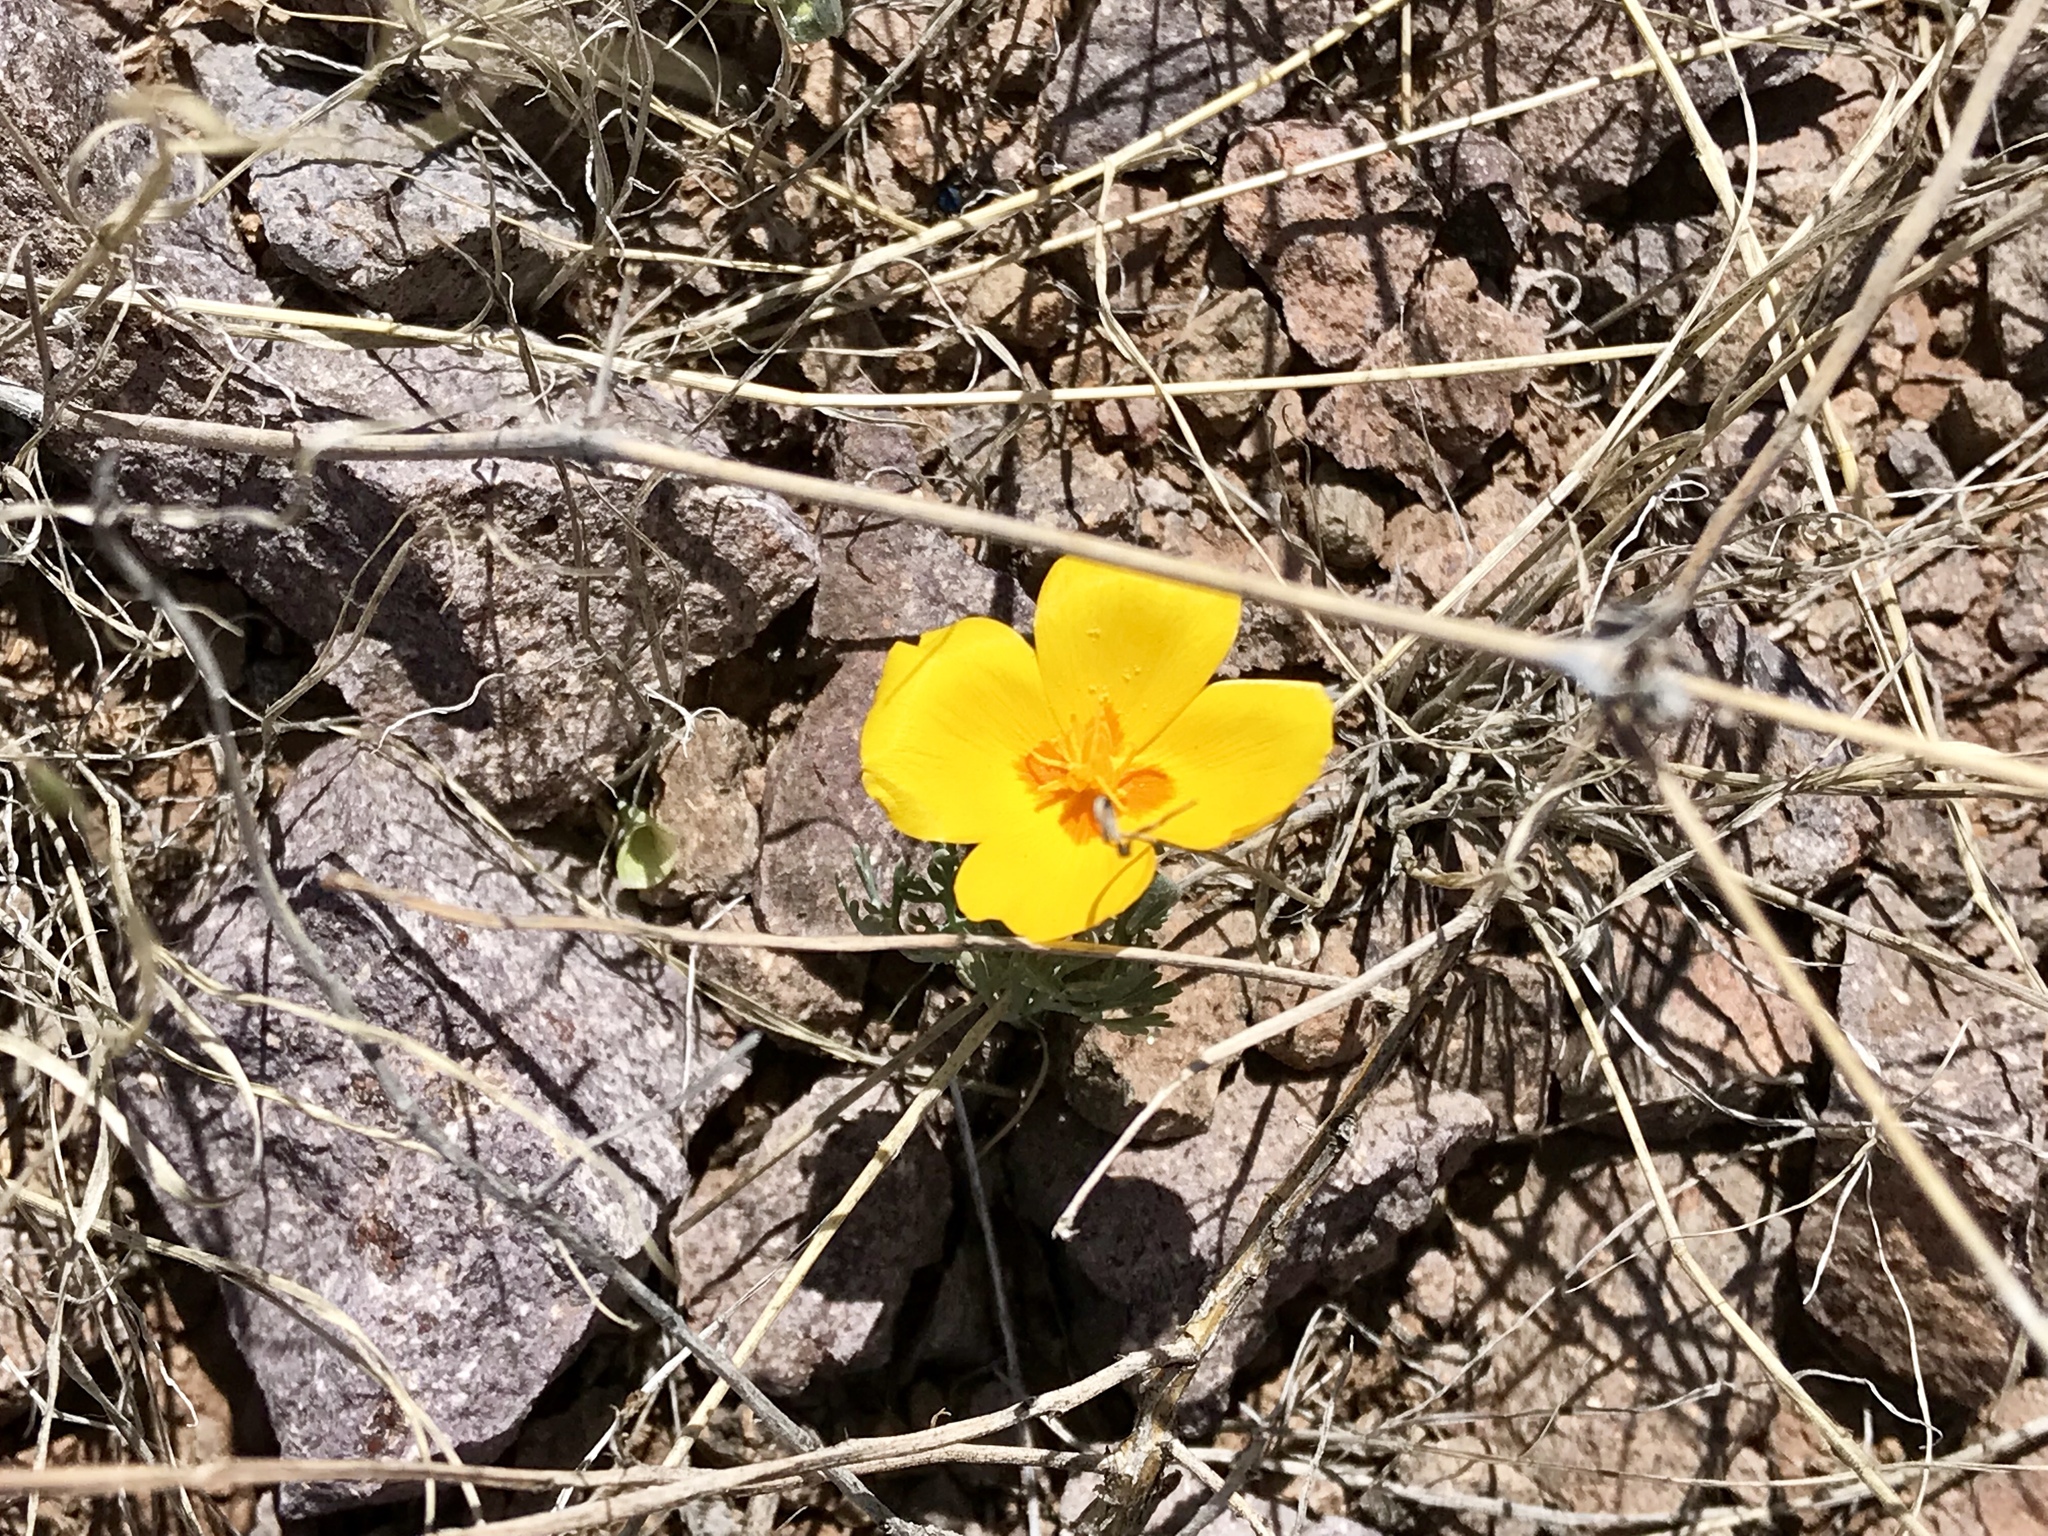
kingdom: Plantae
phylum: Tracheophyta
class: Magnoliopsida
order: Ranunculales
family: Papaveraceae
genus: Eschscholzia
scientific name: Eschscholzia californica
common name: California poppy
